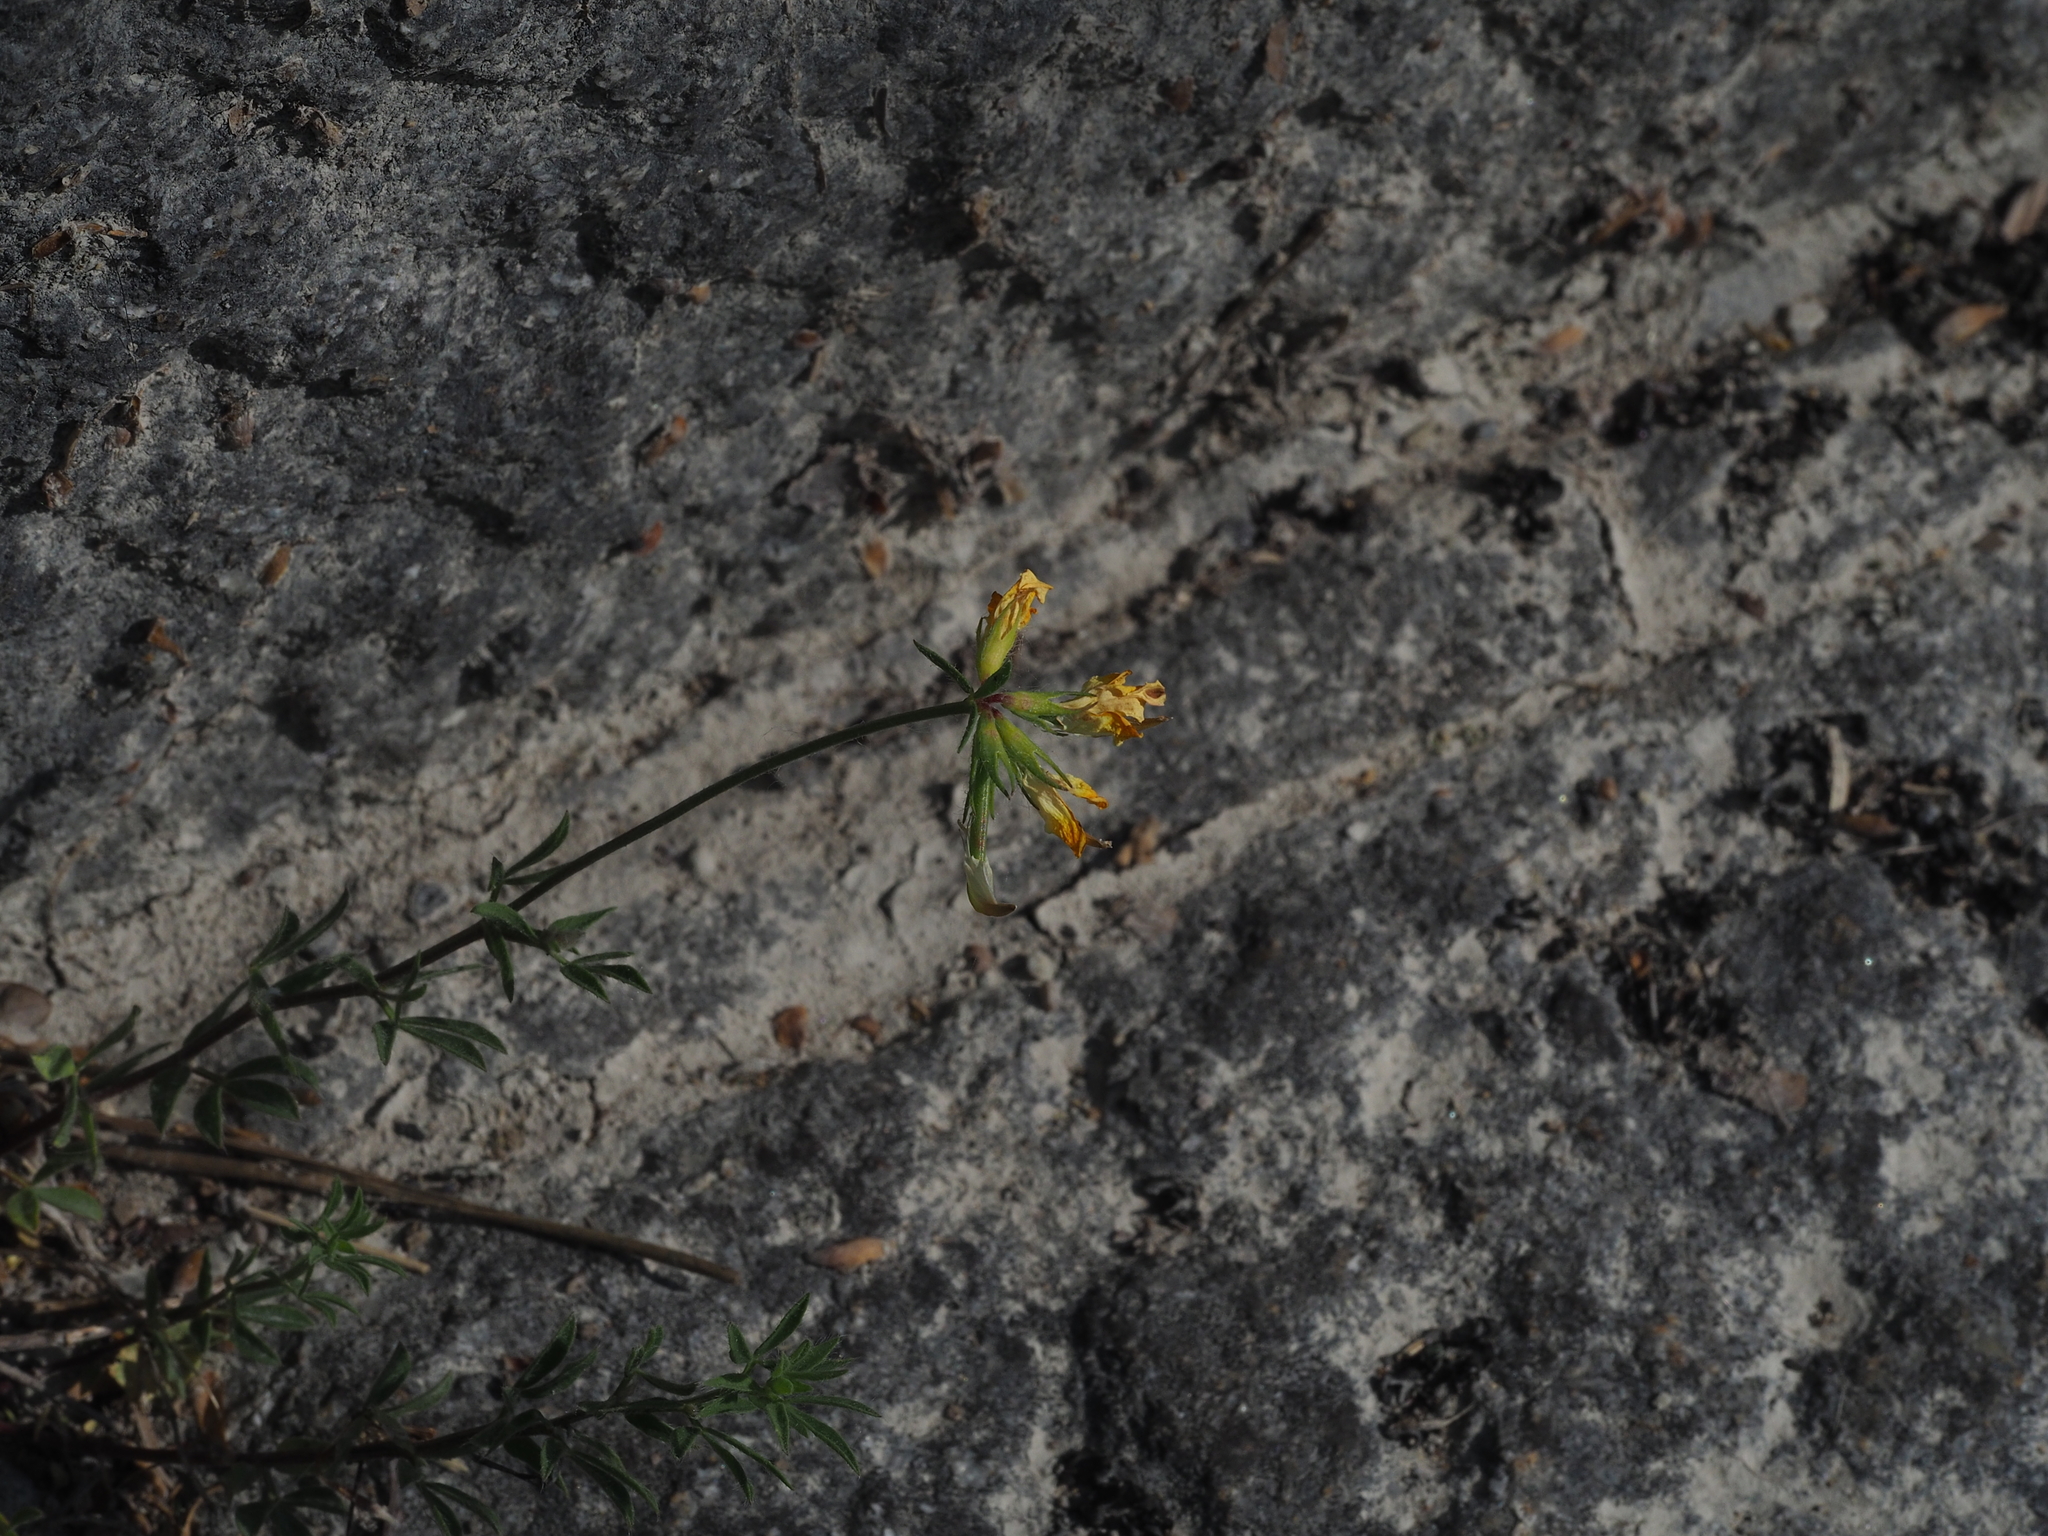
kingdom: Plantae
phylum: Tracheophyta
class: Magnoliopsida
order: Fabales
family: Fabaceae
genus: Lotus
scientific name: Lotus borbasii
